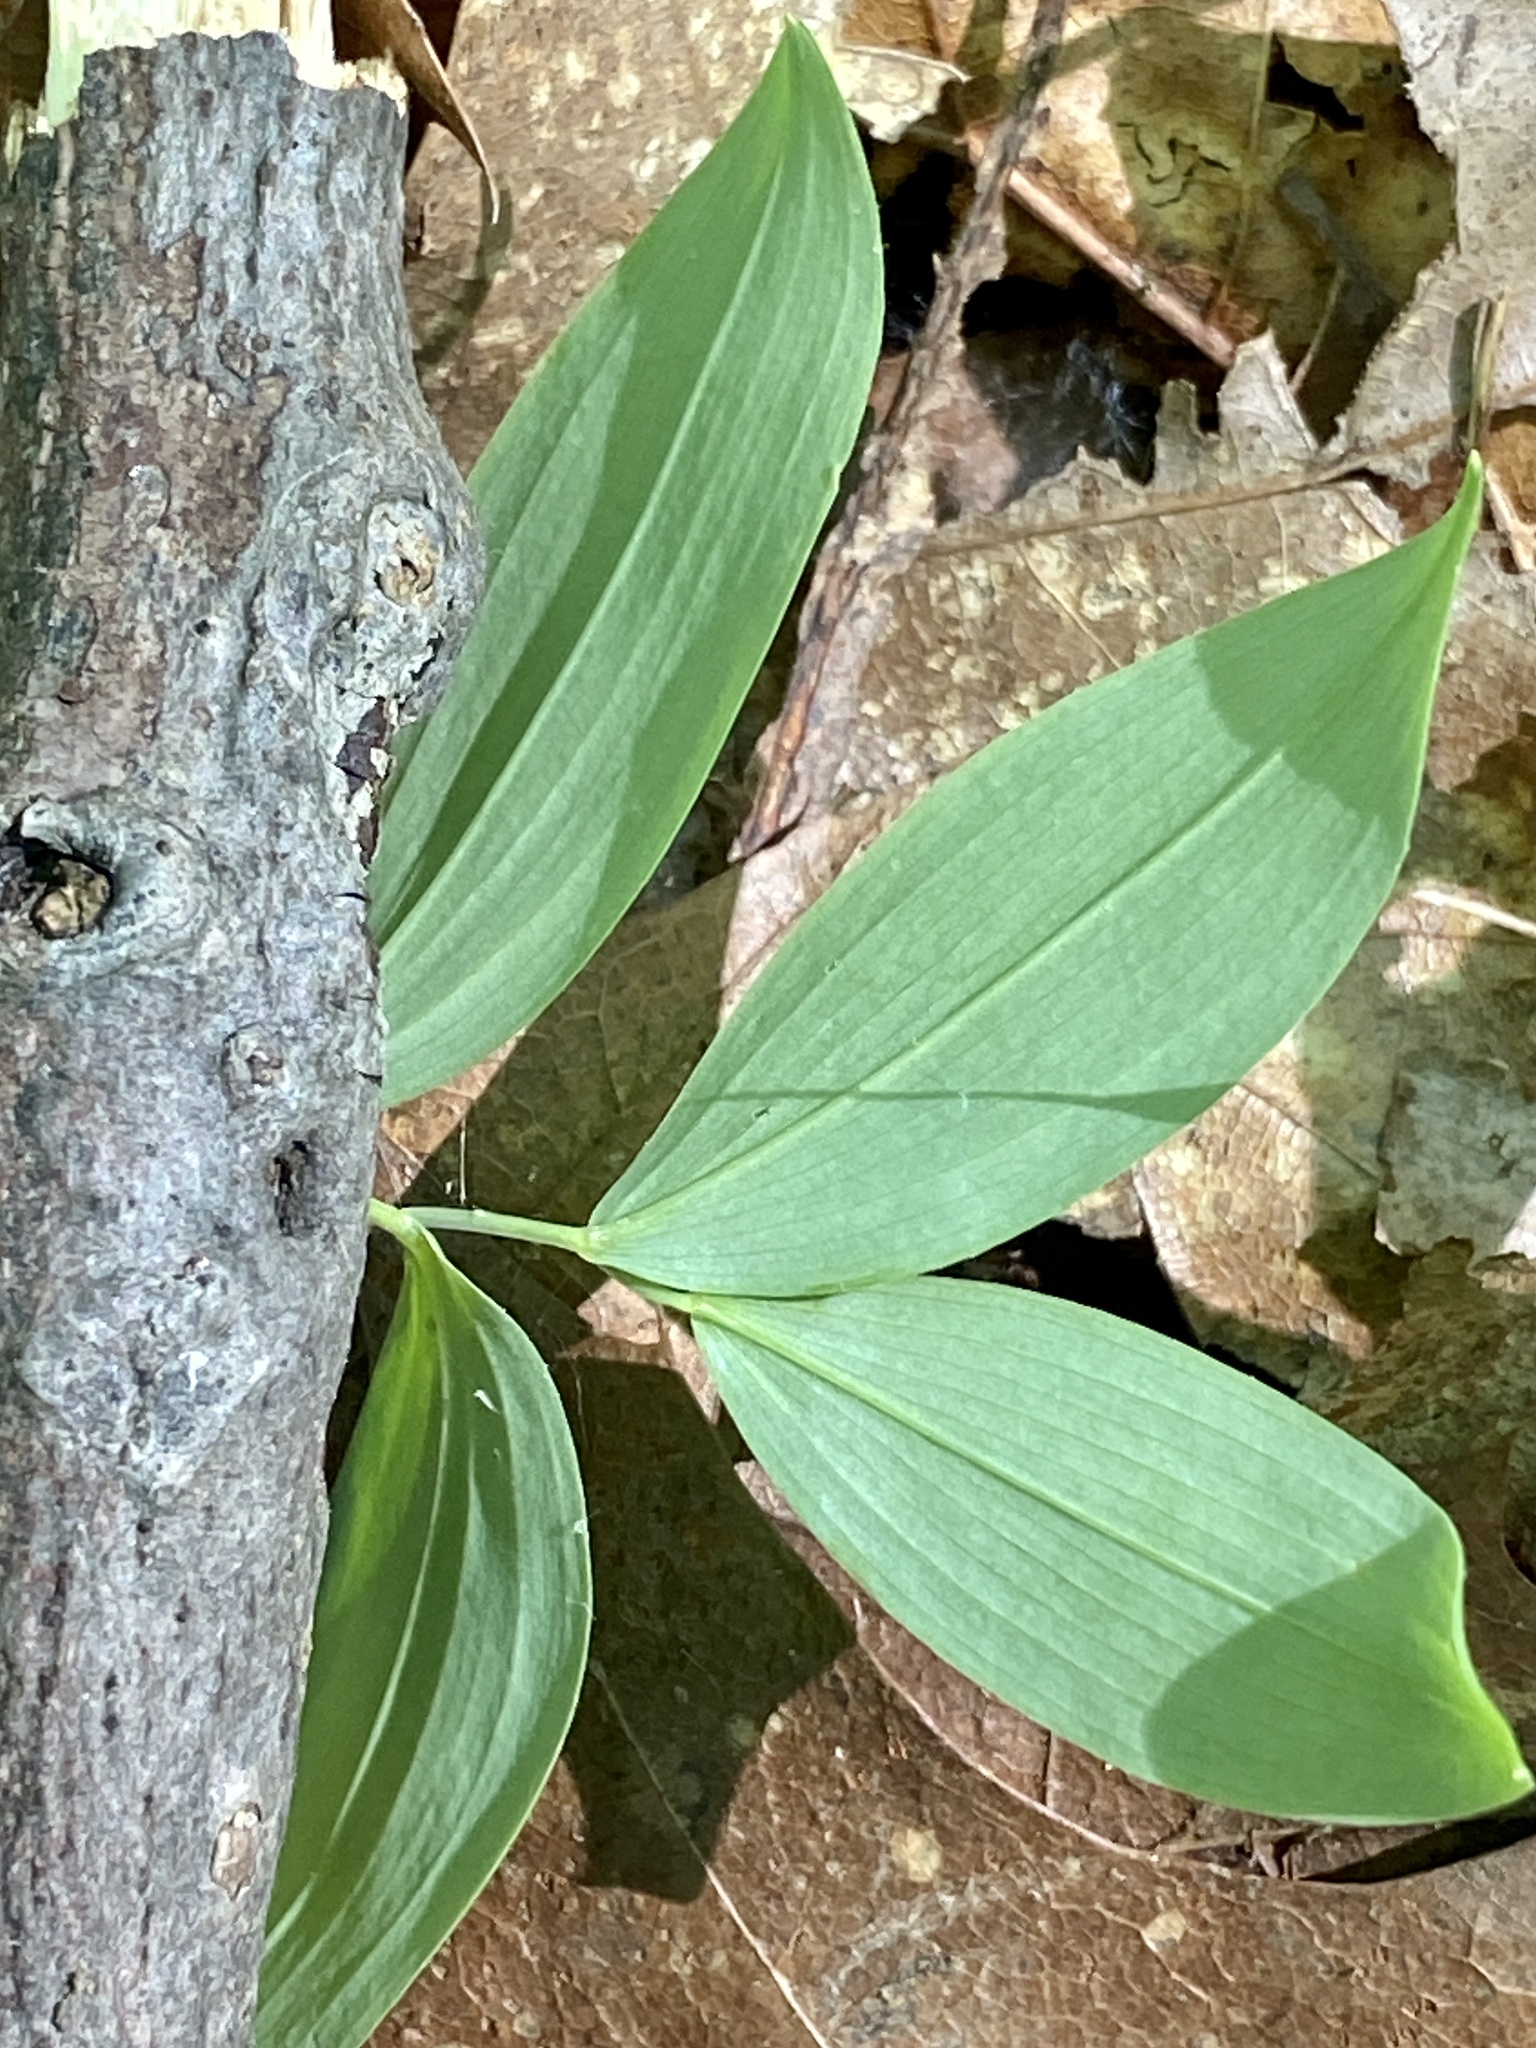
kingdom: Plantae
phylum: Tracheophyta
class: Liliopsida
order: Liliales
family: Colchicaceae
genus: Uvularia
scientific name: Uvularia sessilifolia
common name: Straw-lily
